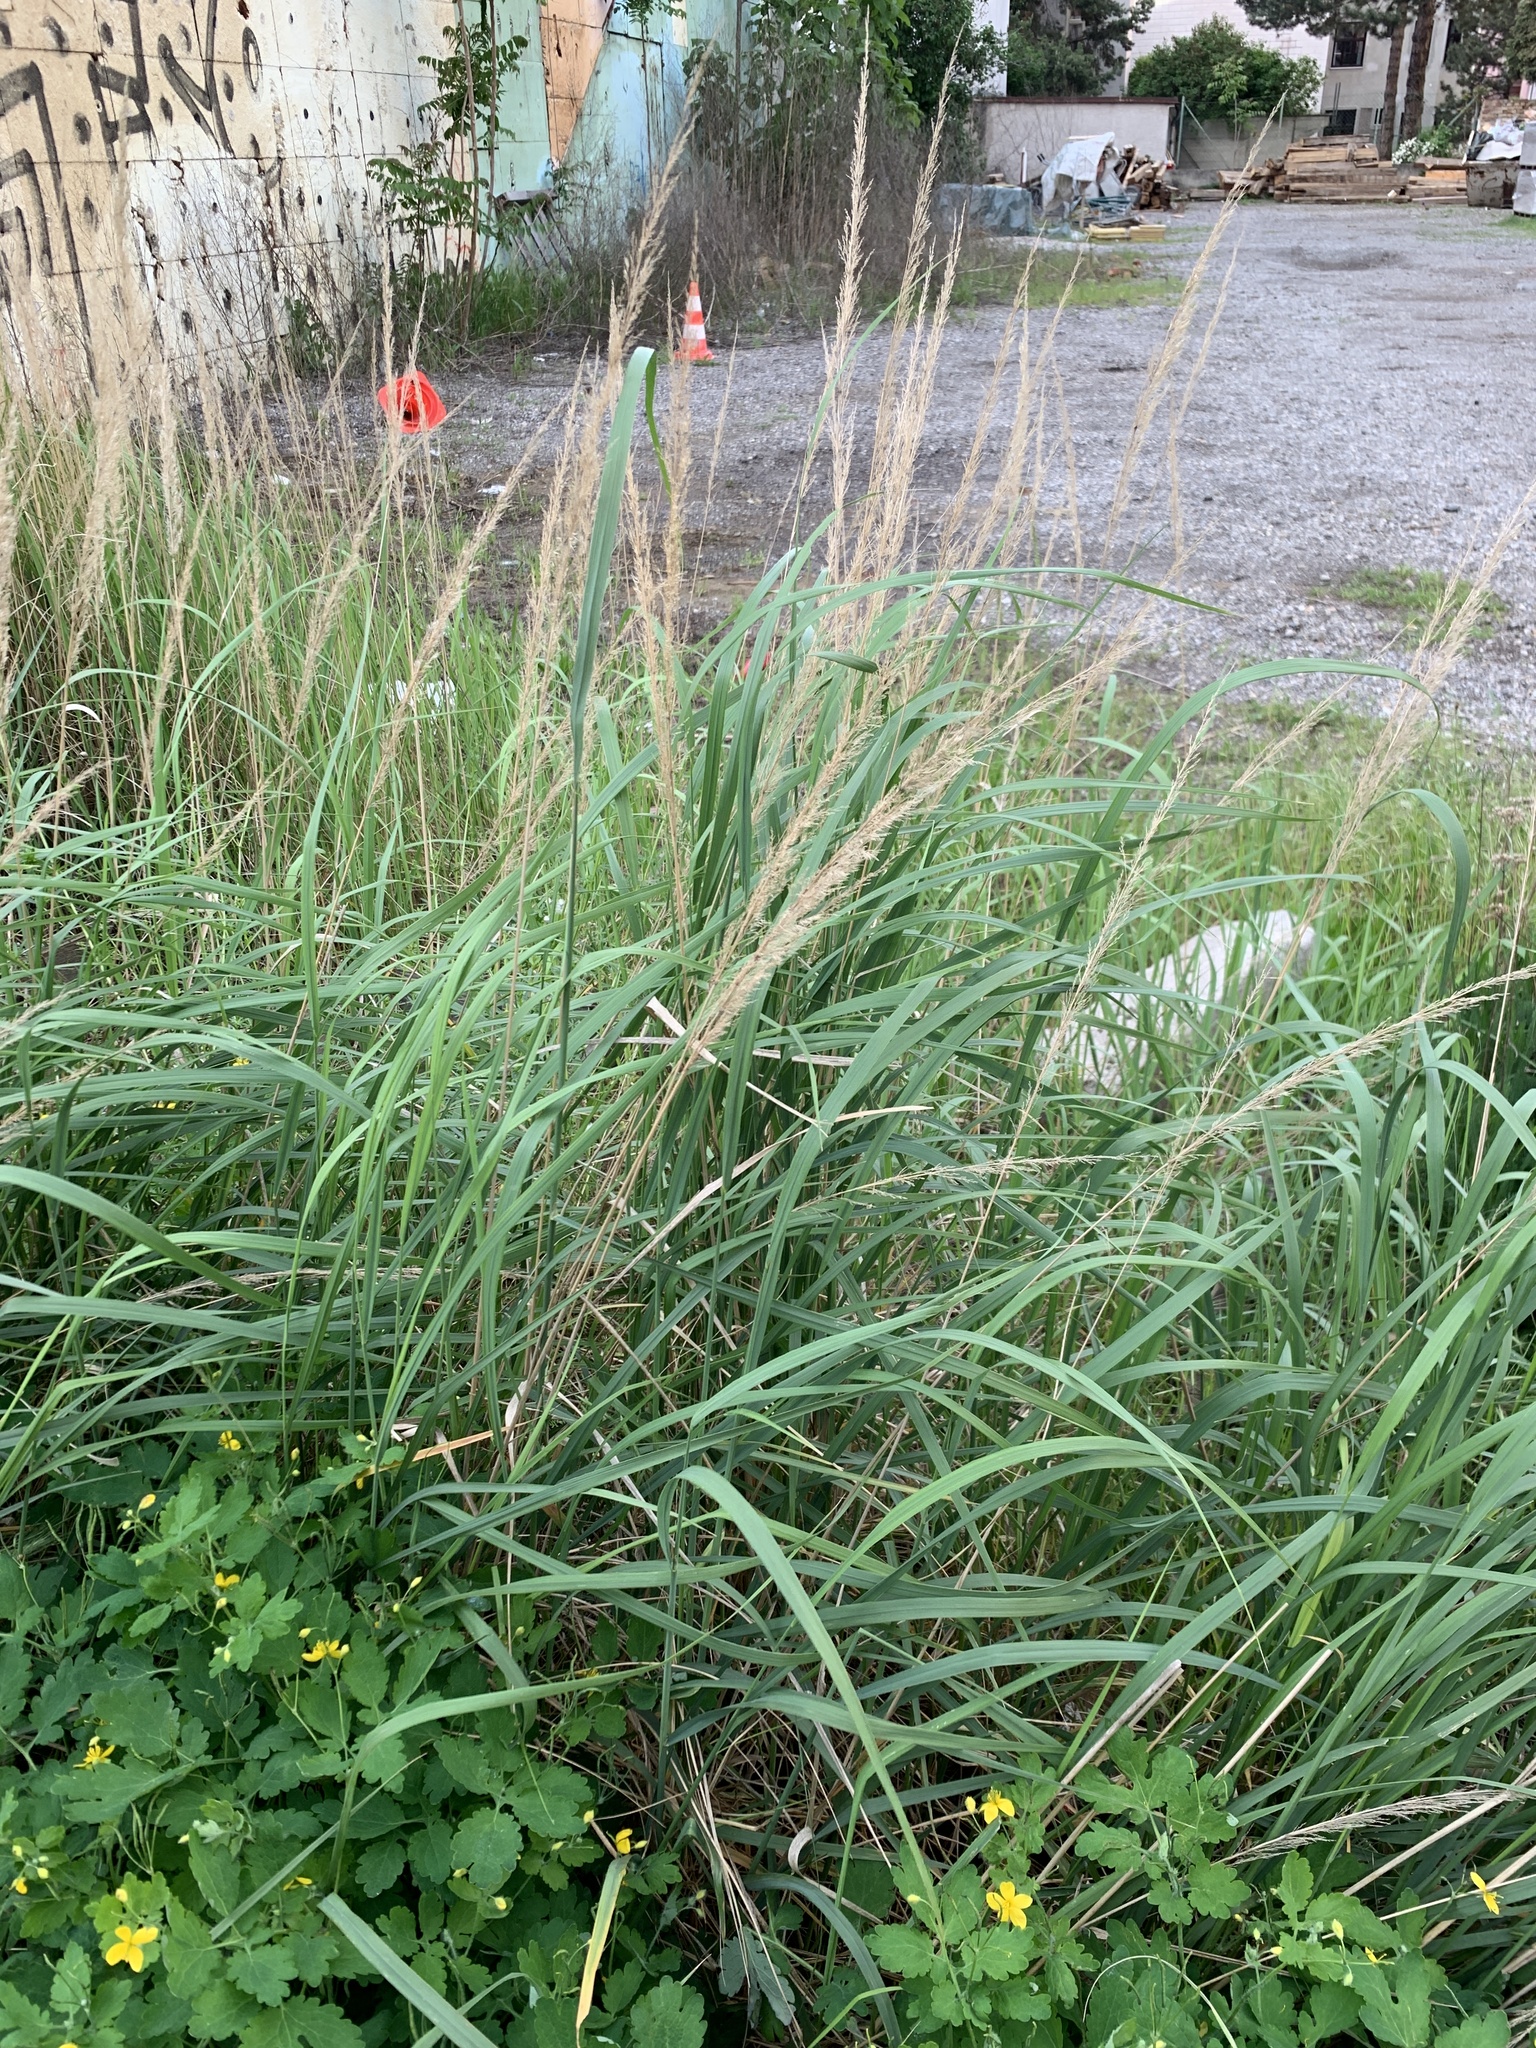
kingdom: Plantae
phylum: Tracheophyta
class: Liliopsida
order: Poales
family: Poaceae
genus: Calamagrostis
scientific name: Calamagrostis epigejos
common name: Wood small-reed
